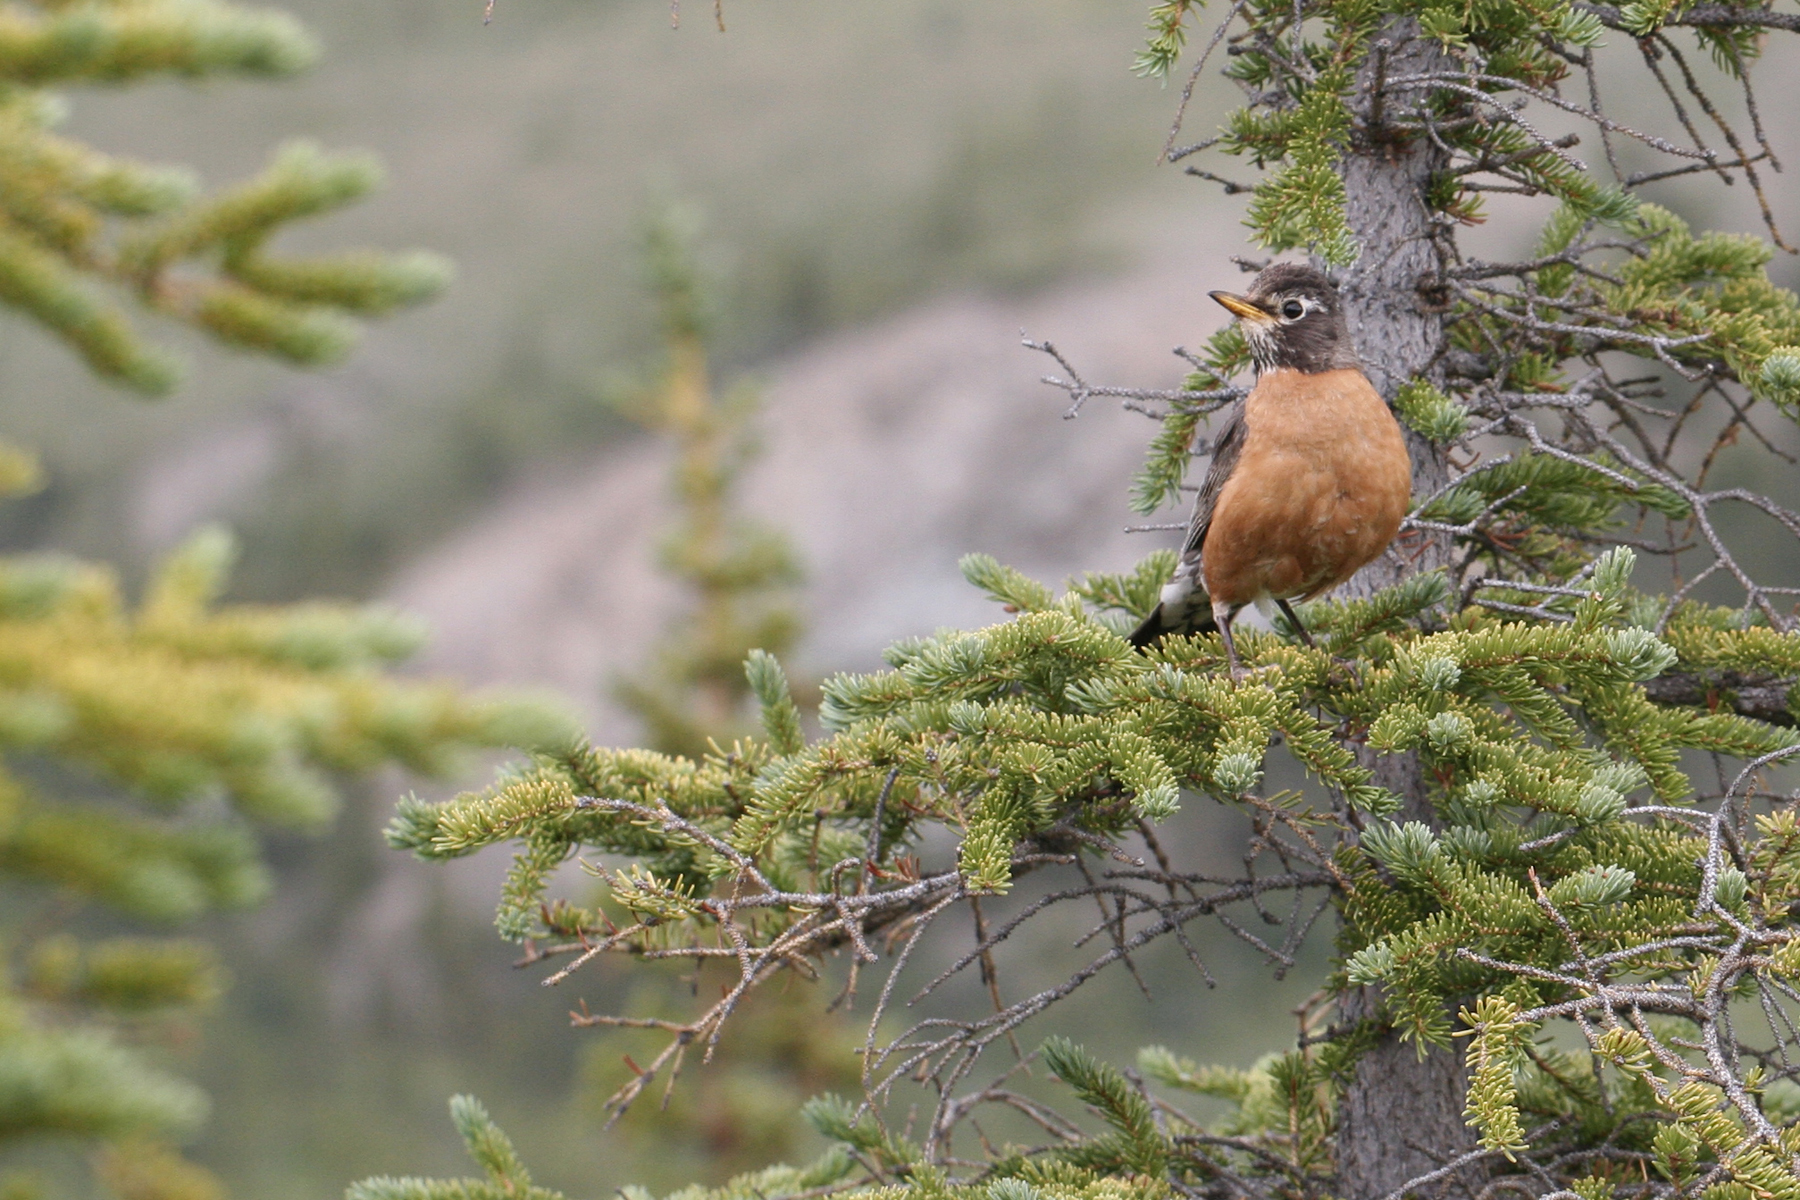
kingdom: Animalia
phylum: Chordata
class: Aves
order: Passeriformes
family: Turdidae
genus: Turdus
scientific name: Turdus migratorius
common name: American robin
